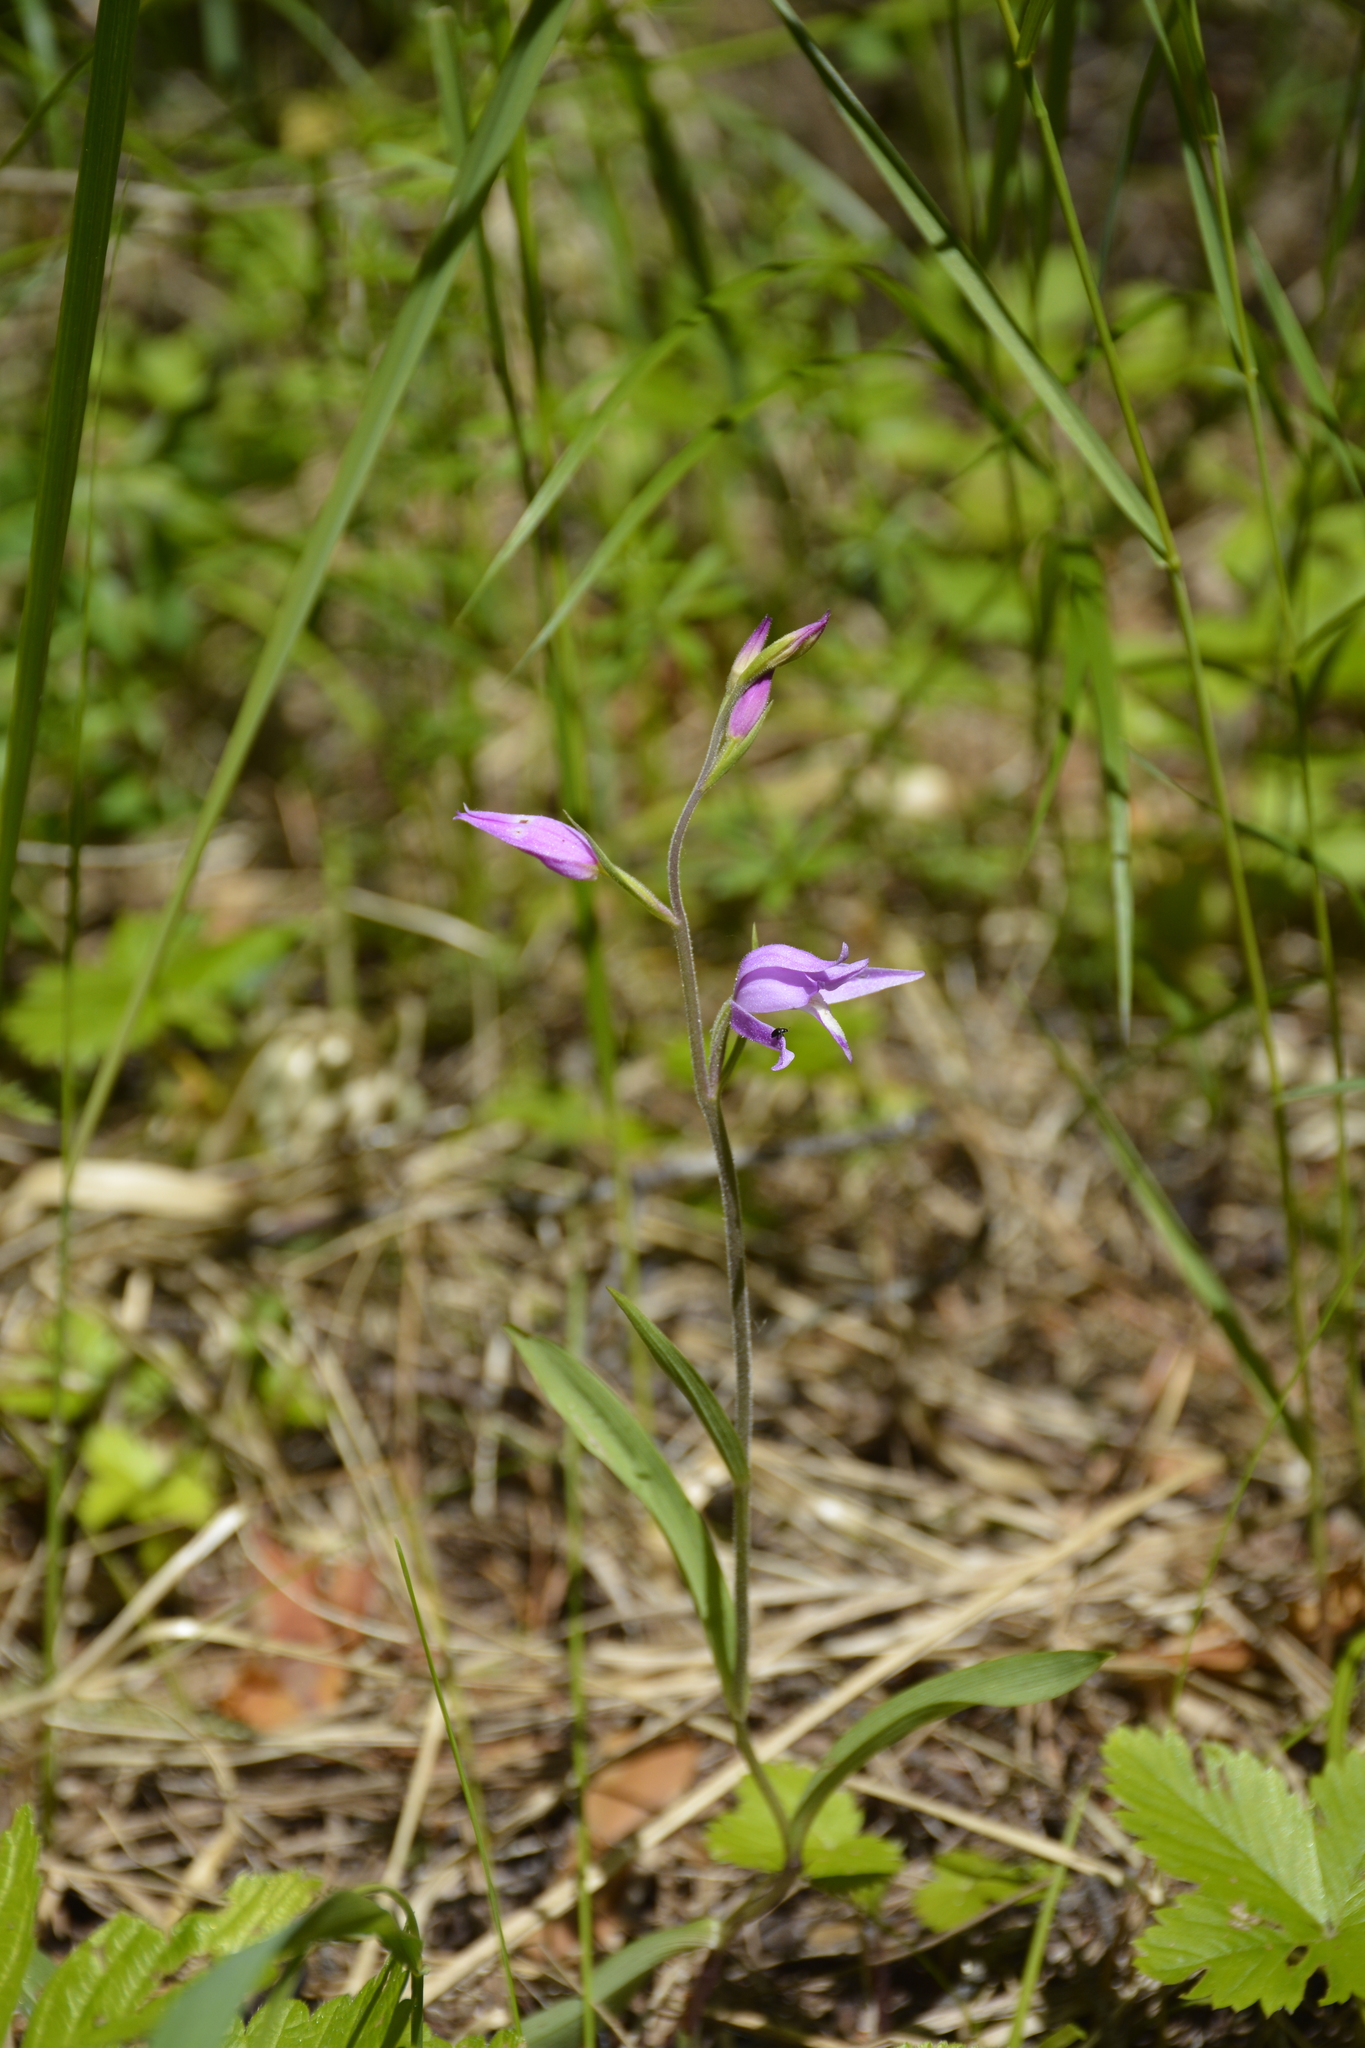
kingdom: Plantae
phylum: Tracheophyta
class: Liliopsida
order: Asparagales
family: Orchidaceae
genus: Cephalanthera
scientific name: Cephalanthera rubra
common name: Red helleborine
